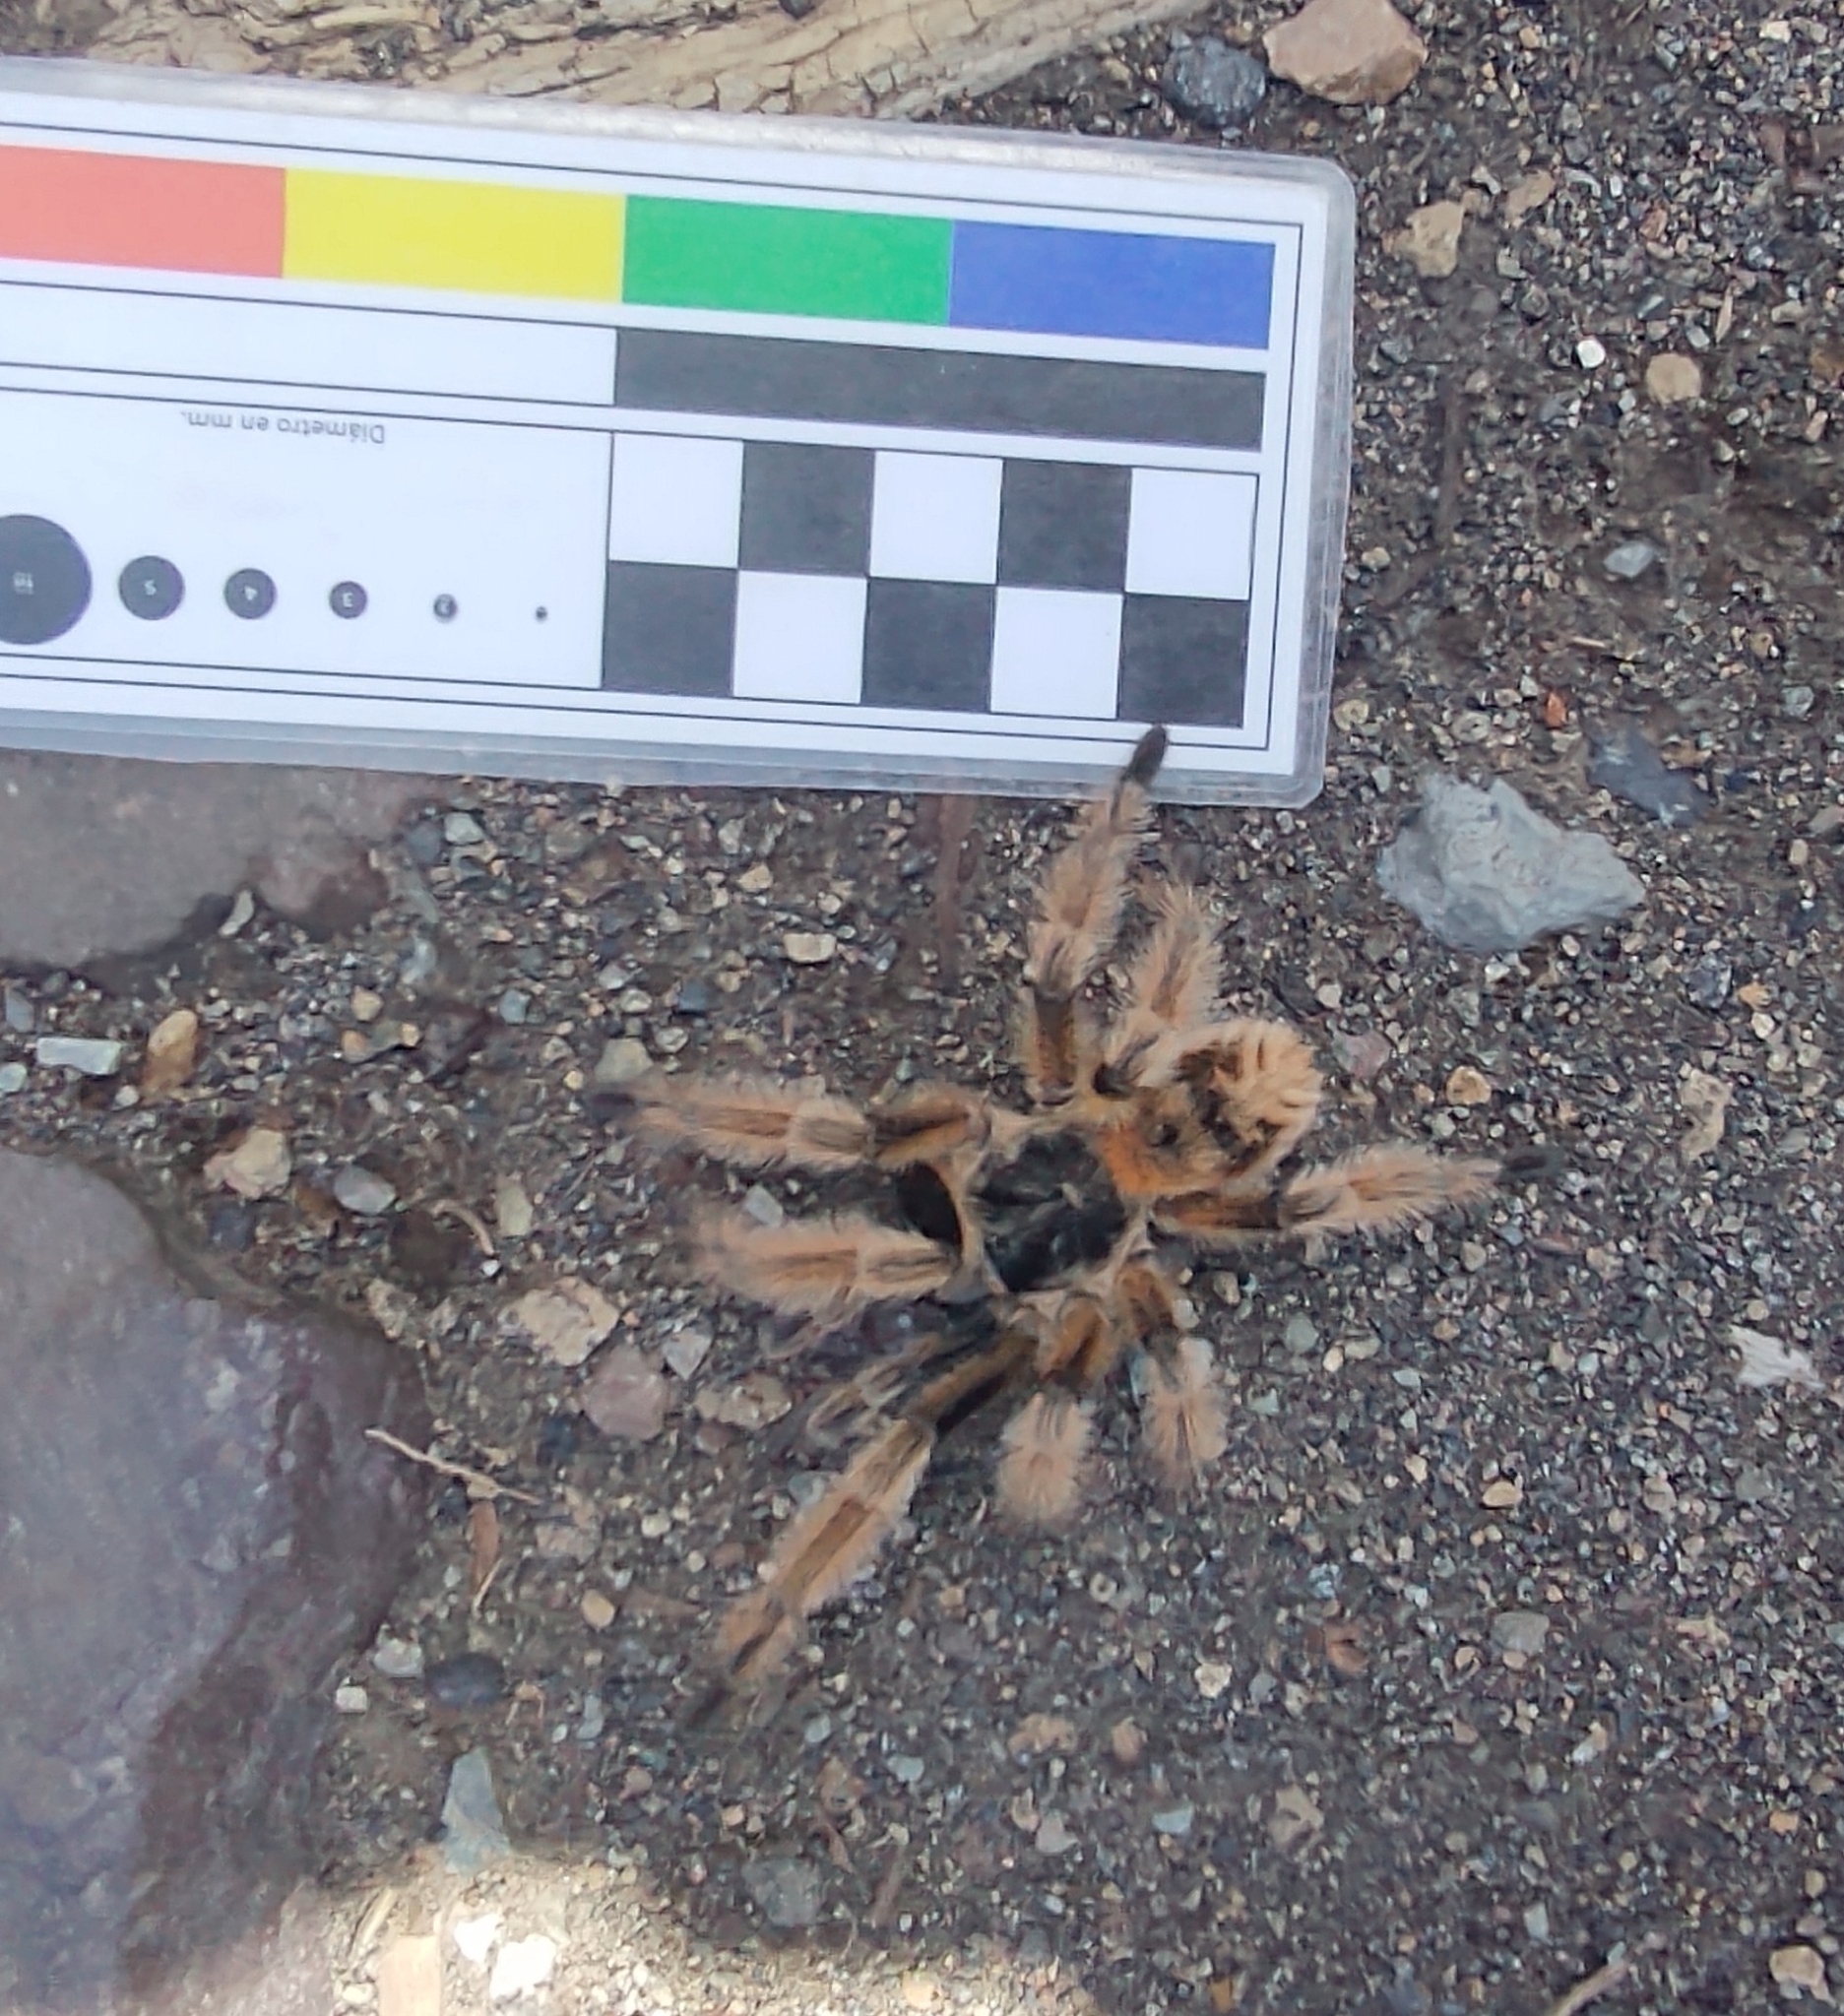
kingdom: Animalia
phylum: Arthropoda
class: Arachnida
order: Araneae
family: Theraphosidae
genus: Phrixotrichus
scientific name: Phrixotrichus vulpinus
